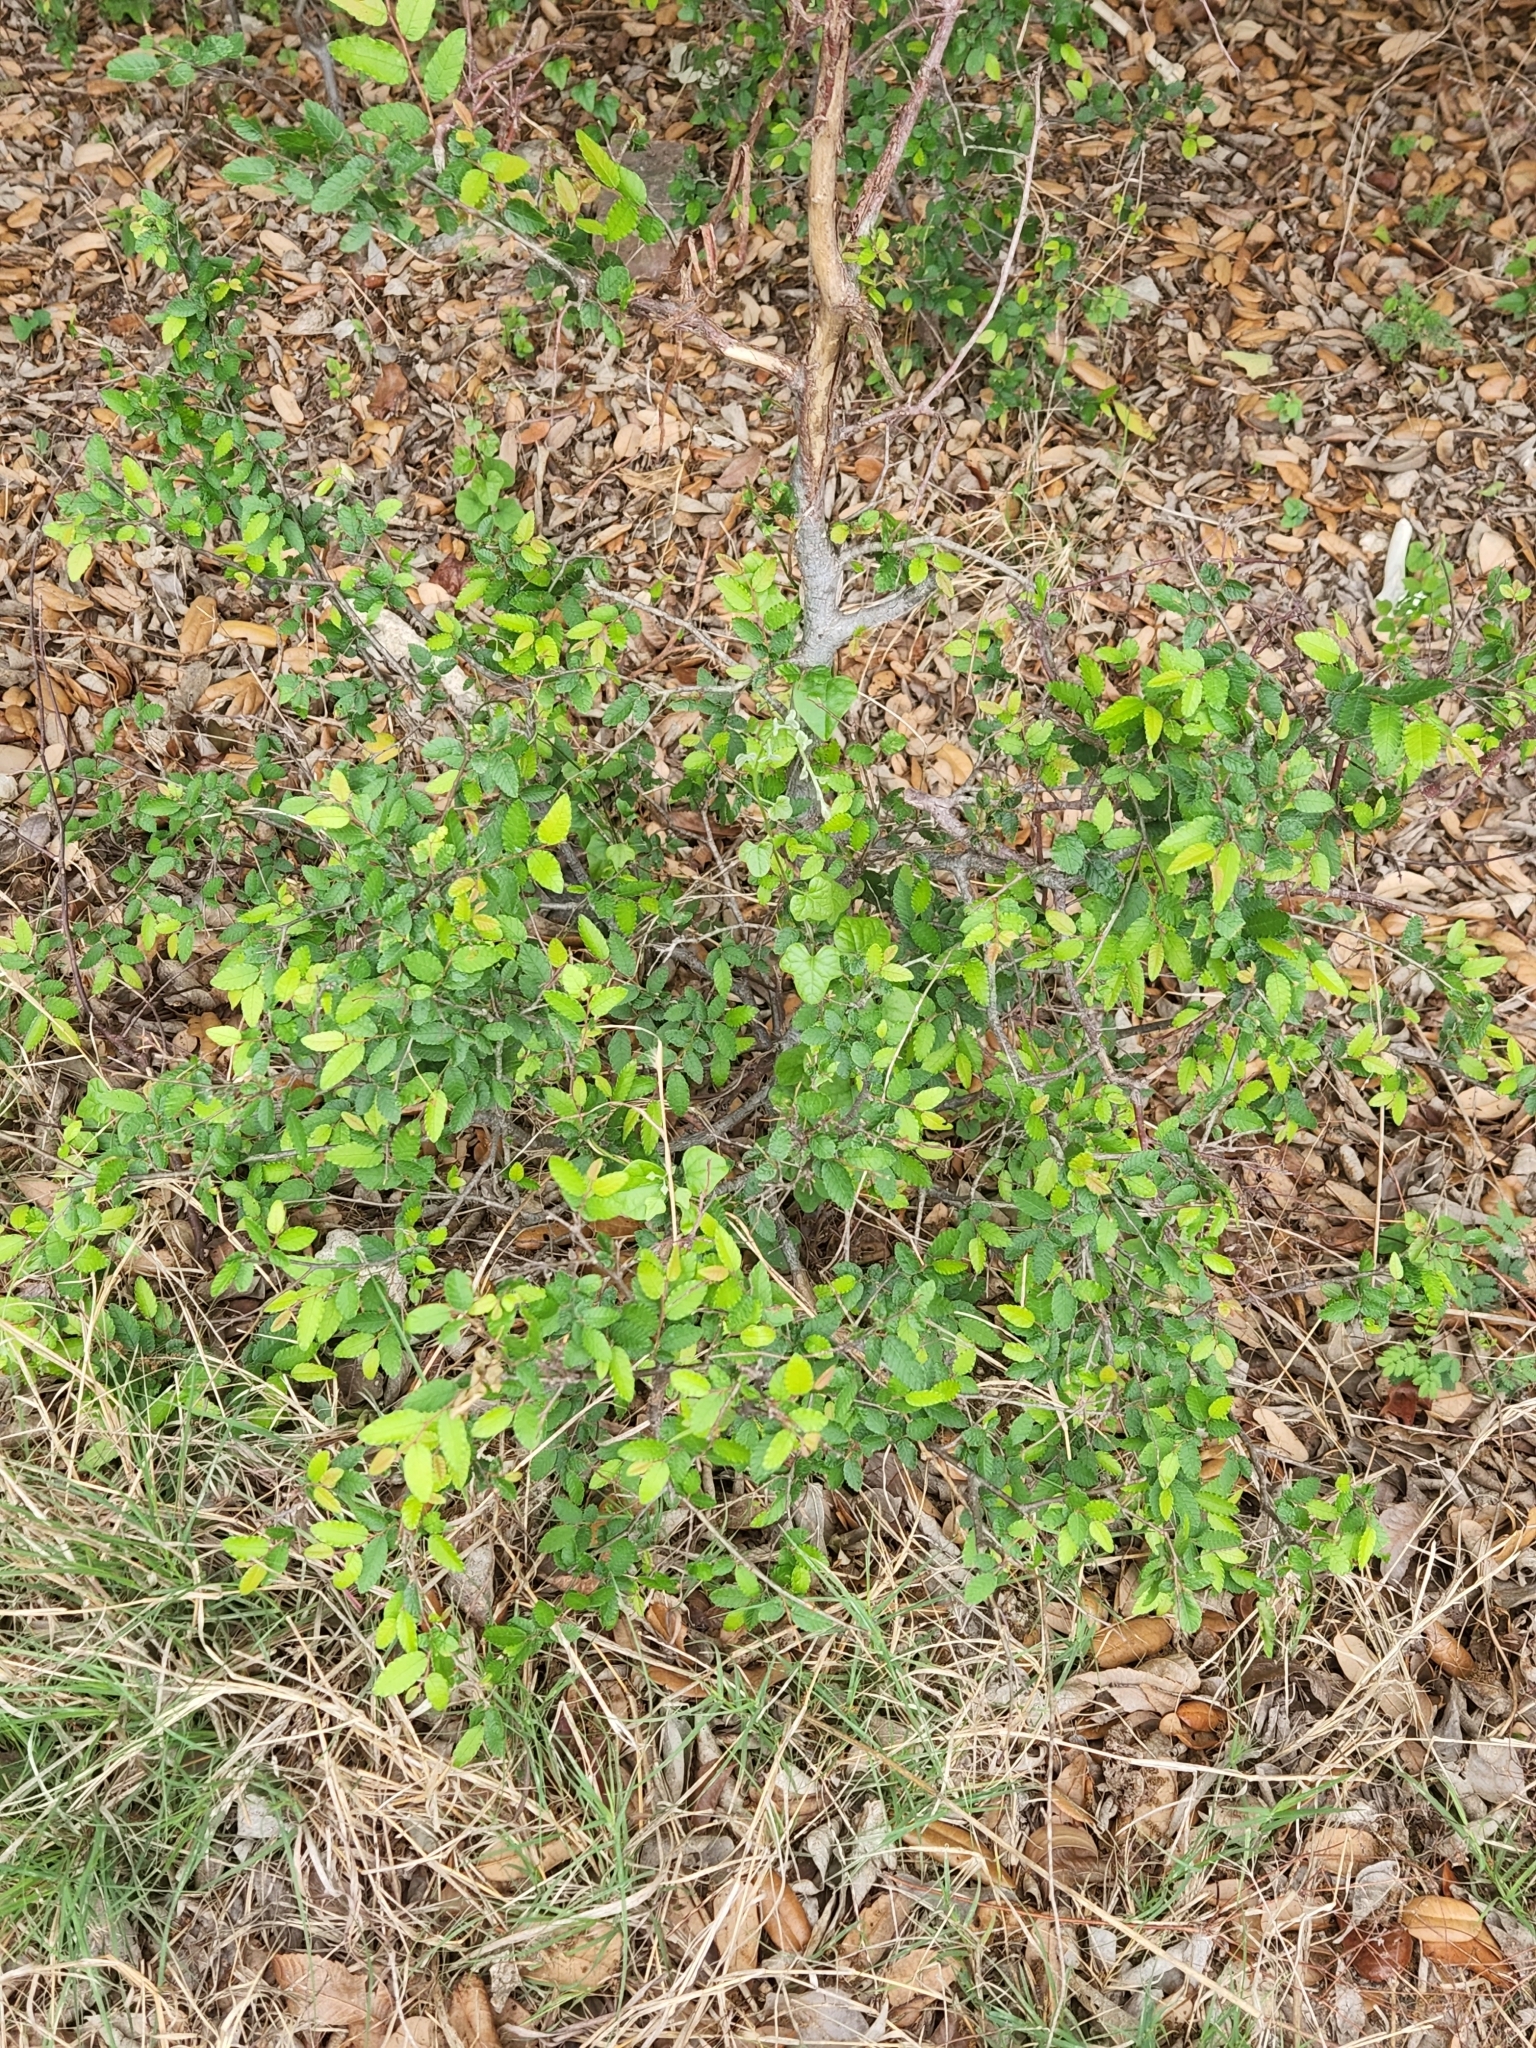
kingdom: Plantae
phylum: Tracheophyta
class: Magnoliopsida
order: Rosales
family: Ulmaceae
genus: Ulmus
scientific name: Ulmus crassifolia
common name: Basket elm
